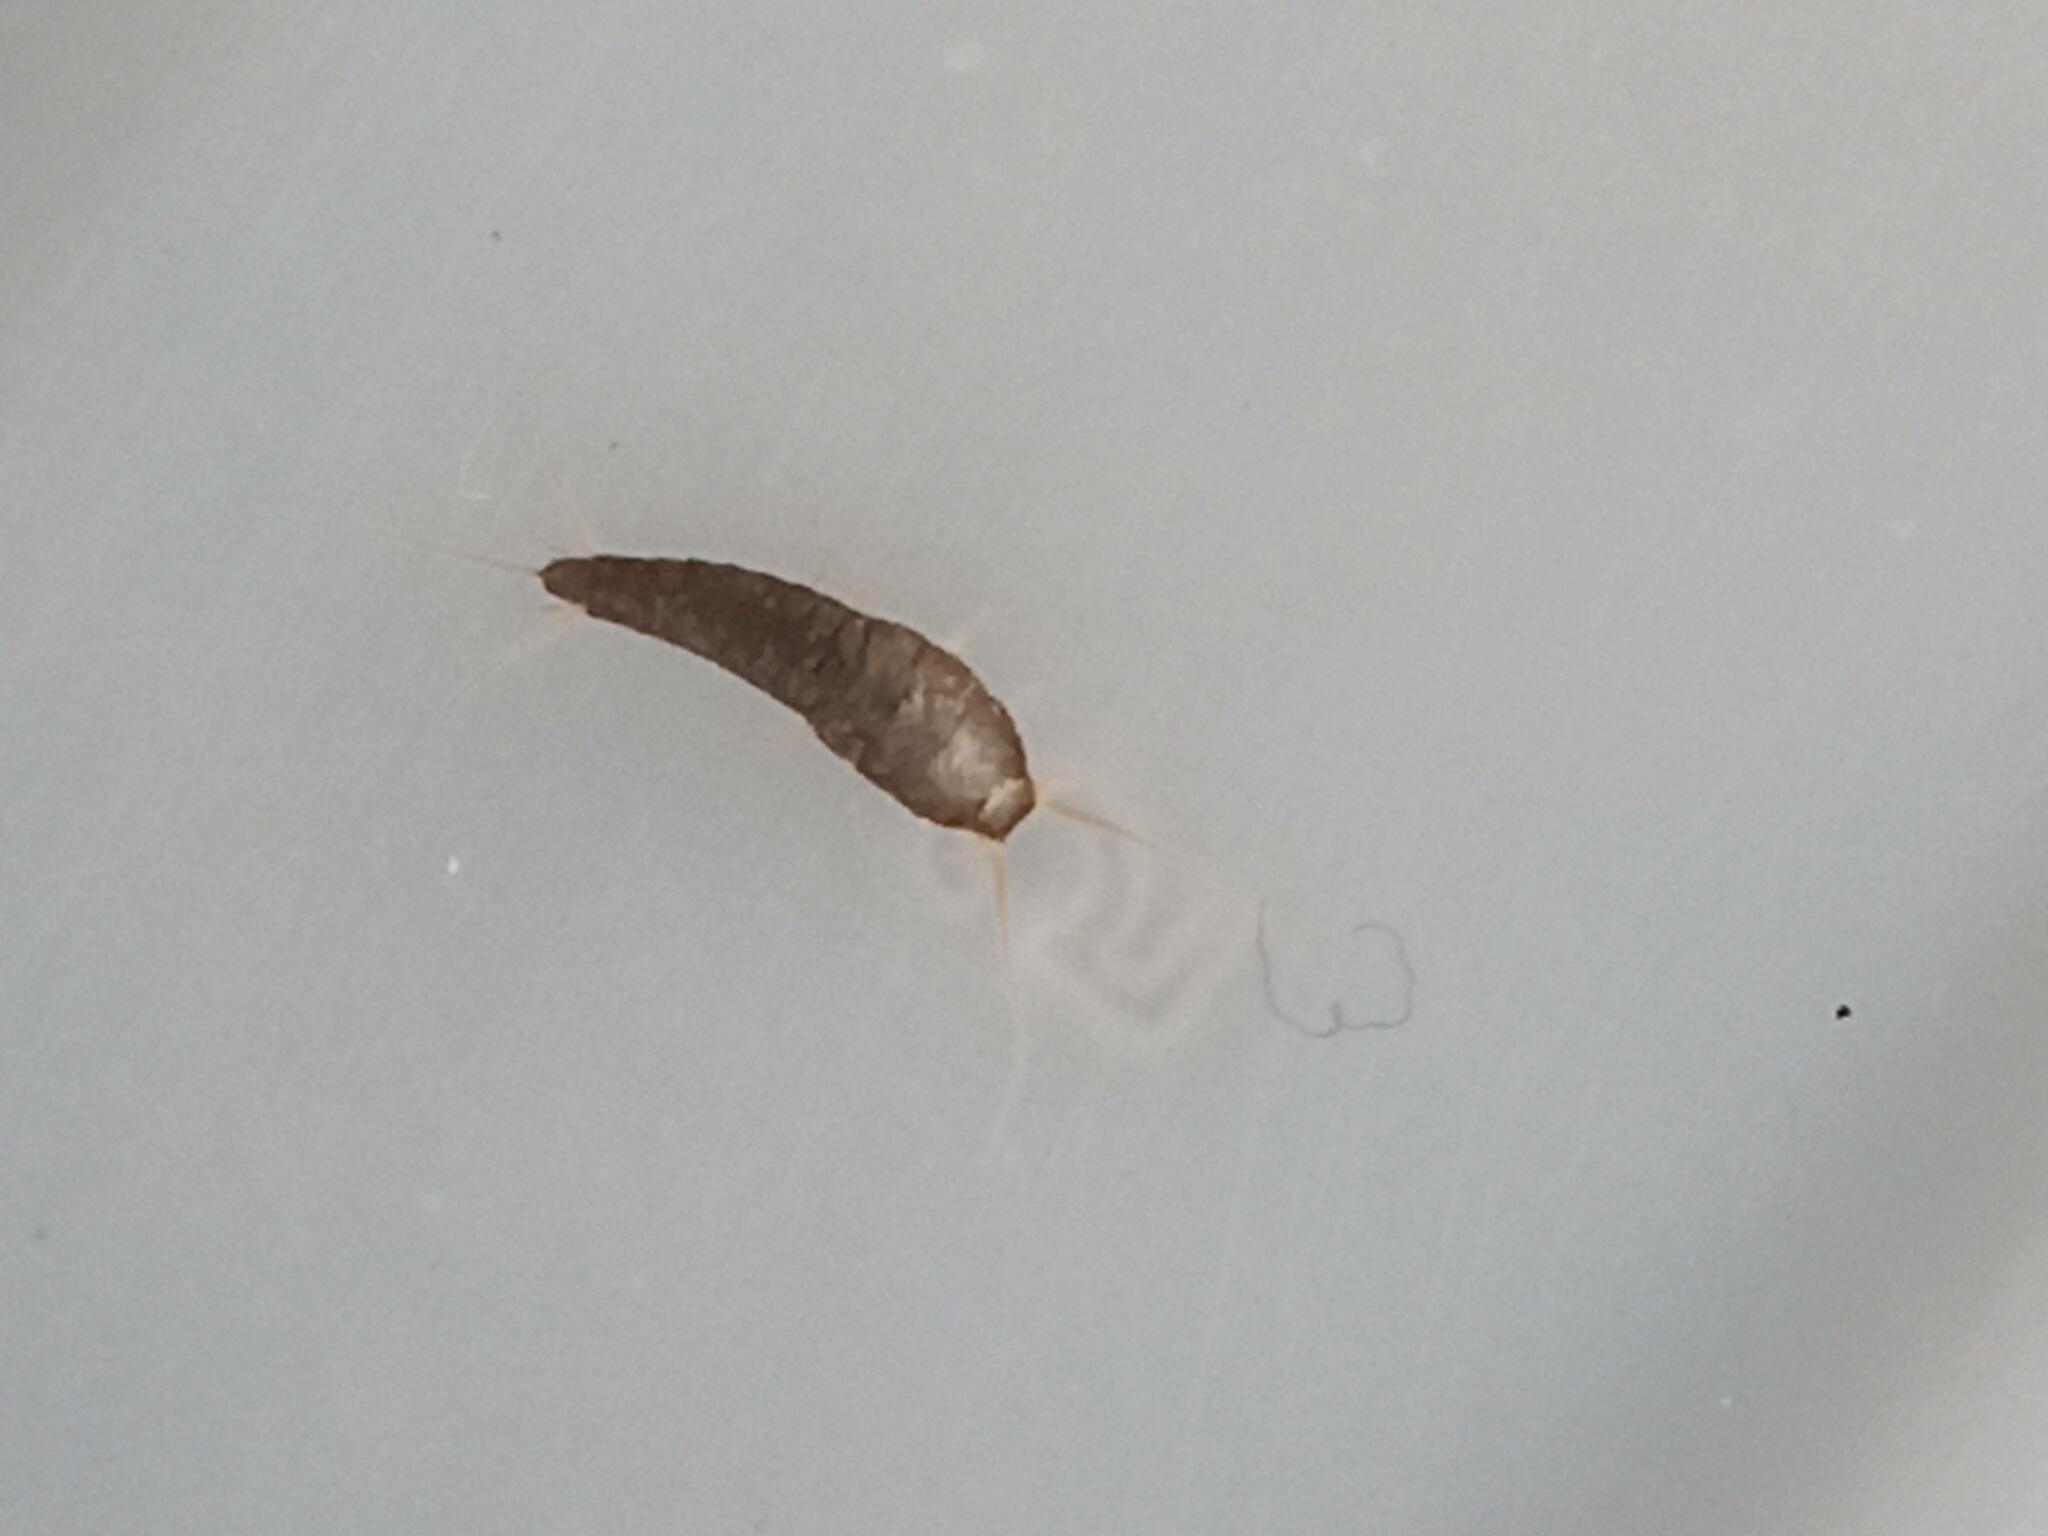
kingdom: Animalia
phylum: Arthropoda
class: Insecta
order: Zygentoma
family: Lepismatidae
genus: Lepisma
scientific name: Lepisma saccharinum
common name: Silverfish
